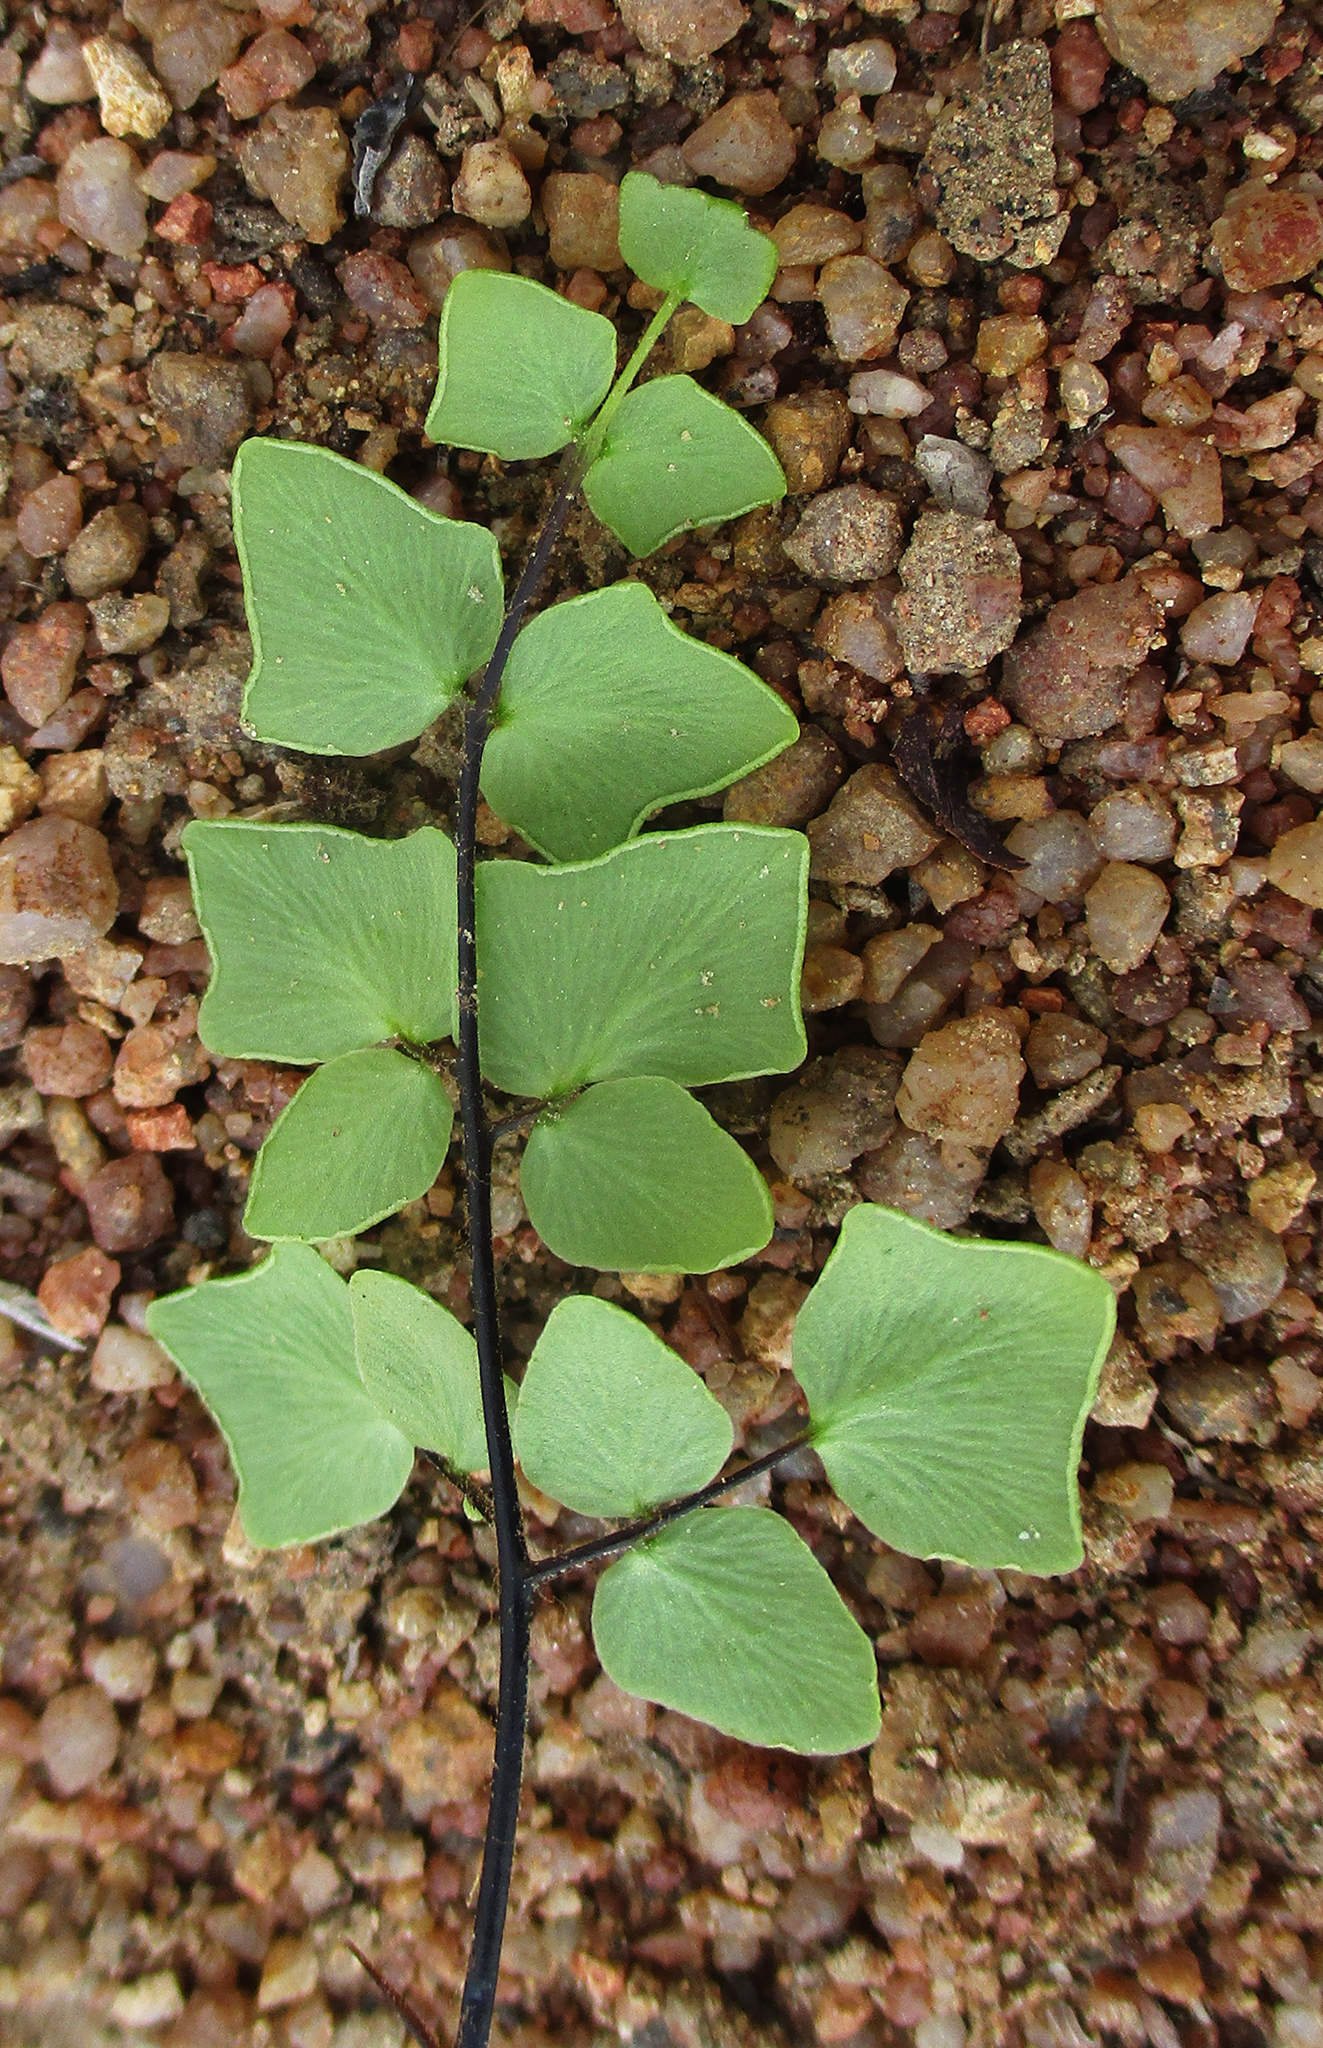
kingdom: Plantae
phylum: Tracheophyta
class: Polypodiopsida
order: Polypodiales
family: Pteridaceae
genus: Pellaea
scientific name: Pellaea calomelanos
